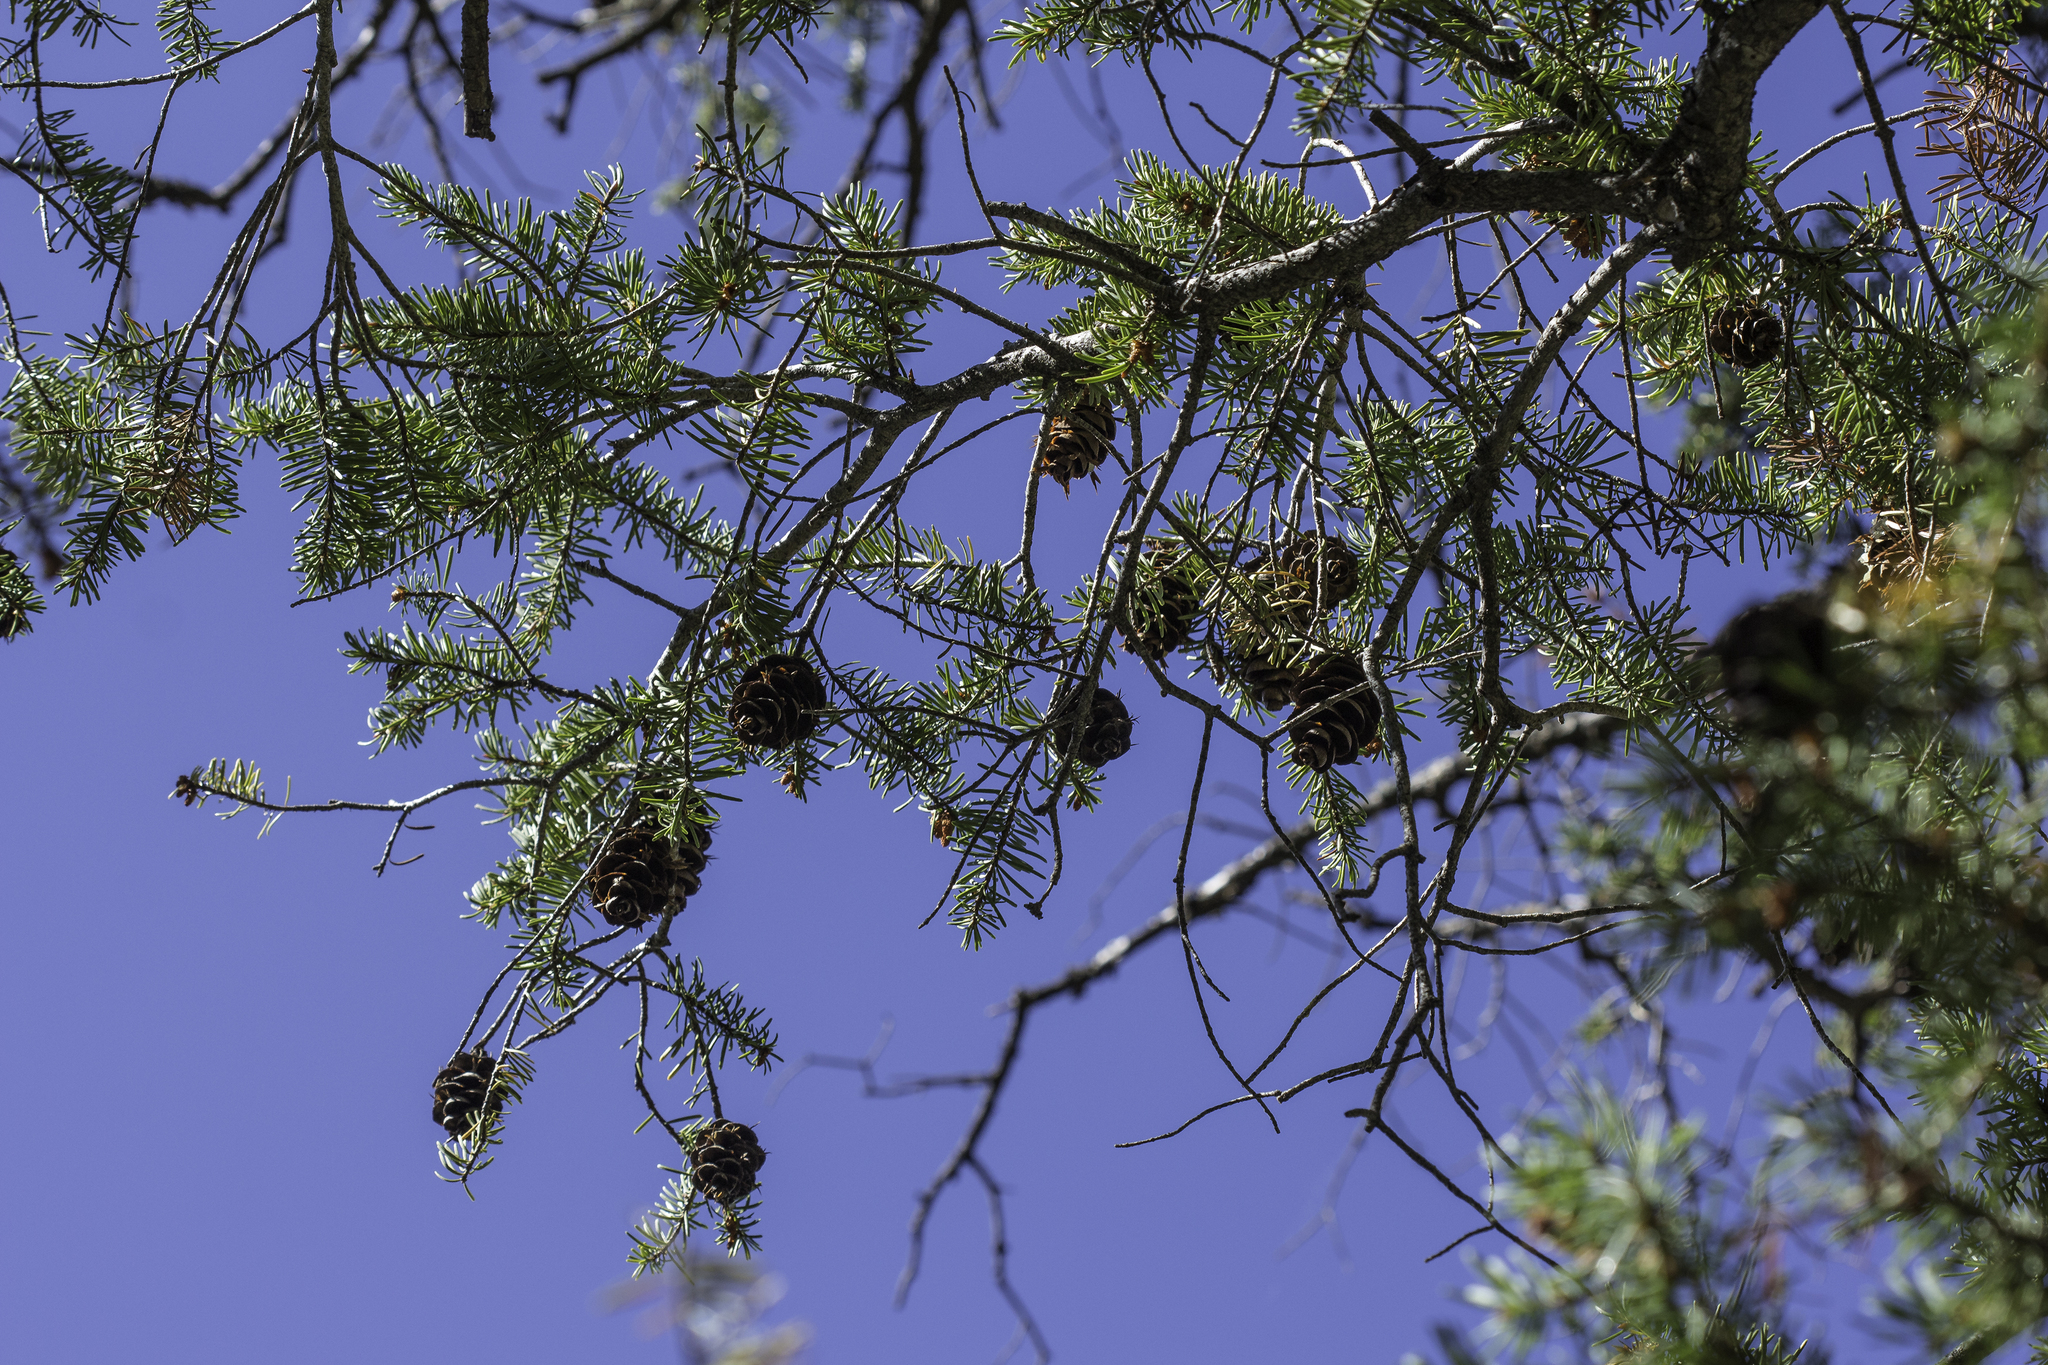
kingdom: Plantae
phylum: Tracheophyta
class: Pinopsida
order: Pinales
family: Pinaceae
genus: Pseudotsuga
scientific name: Pseudotsuga menziesii
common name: Douglas fir
